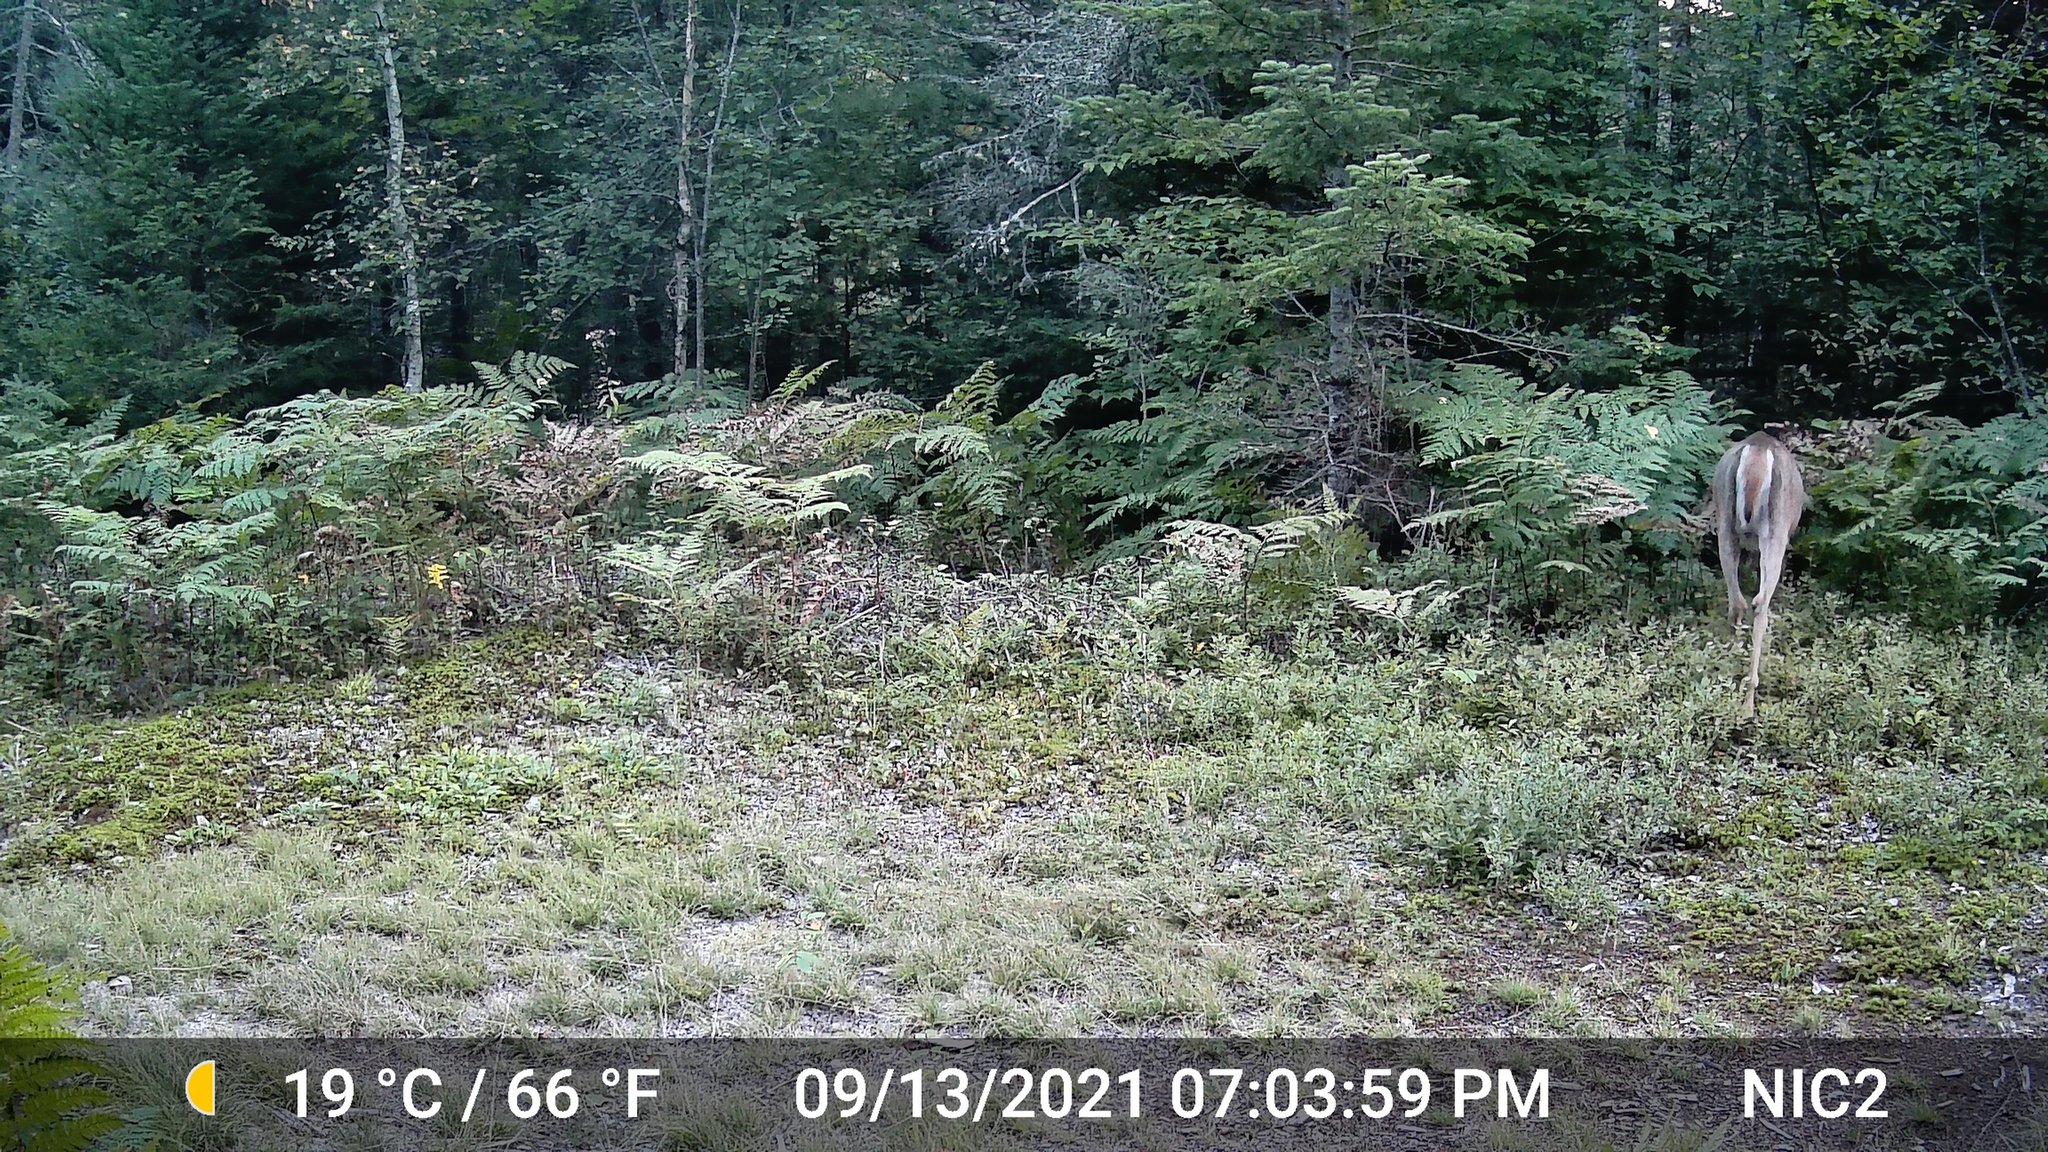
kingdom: Animalia
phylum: Chordata
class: Mammalia
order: Artiodactyla
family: Cervidae
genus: Odocoileus
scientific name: Odocoileus virginianus
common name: White-tailed deer
